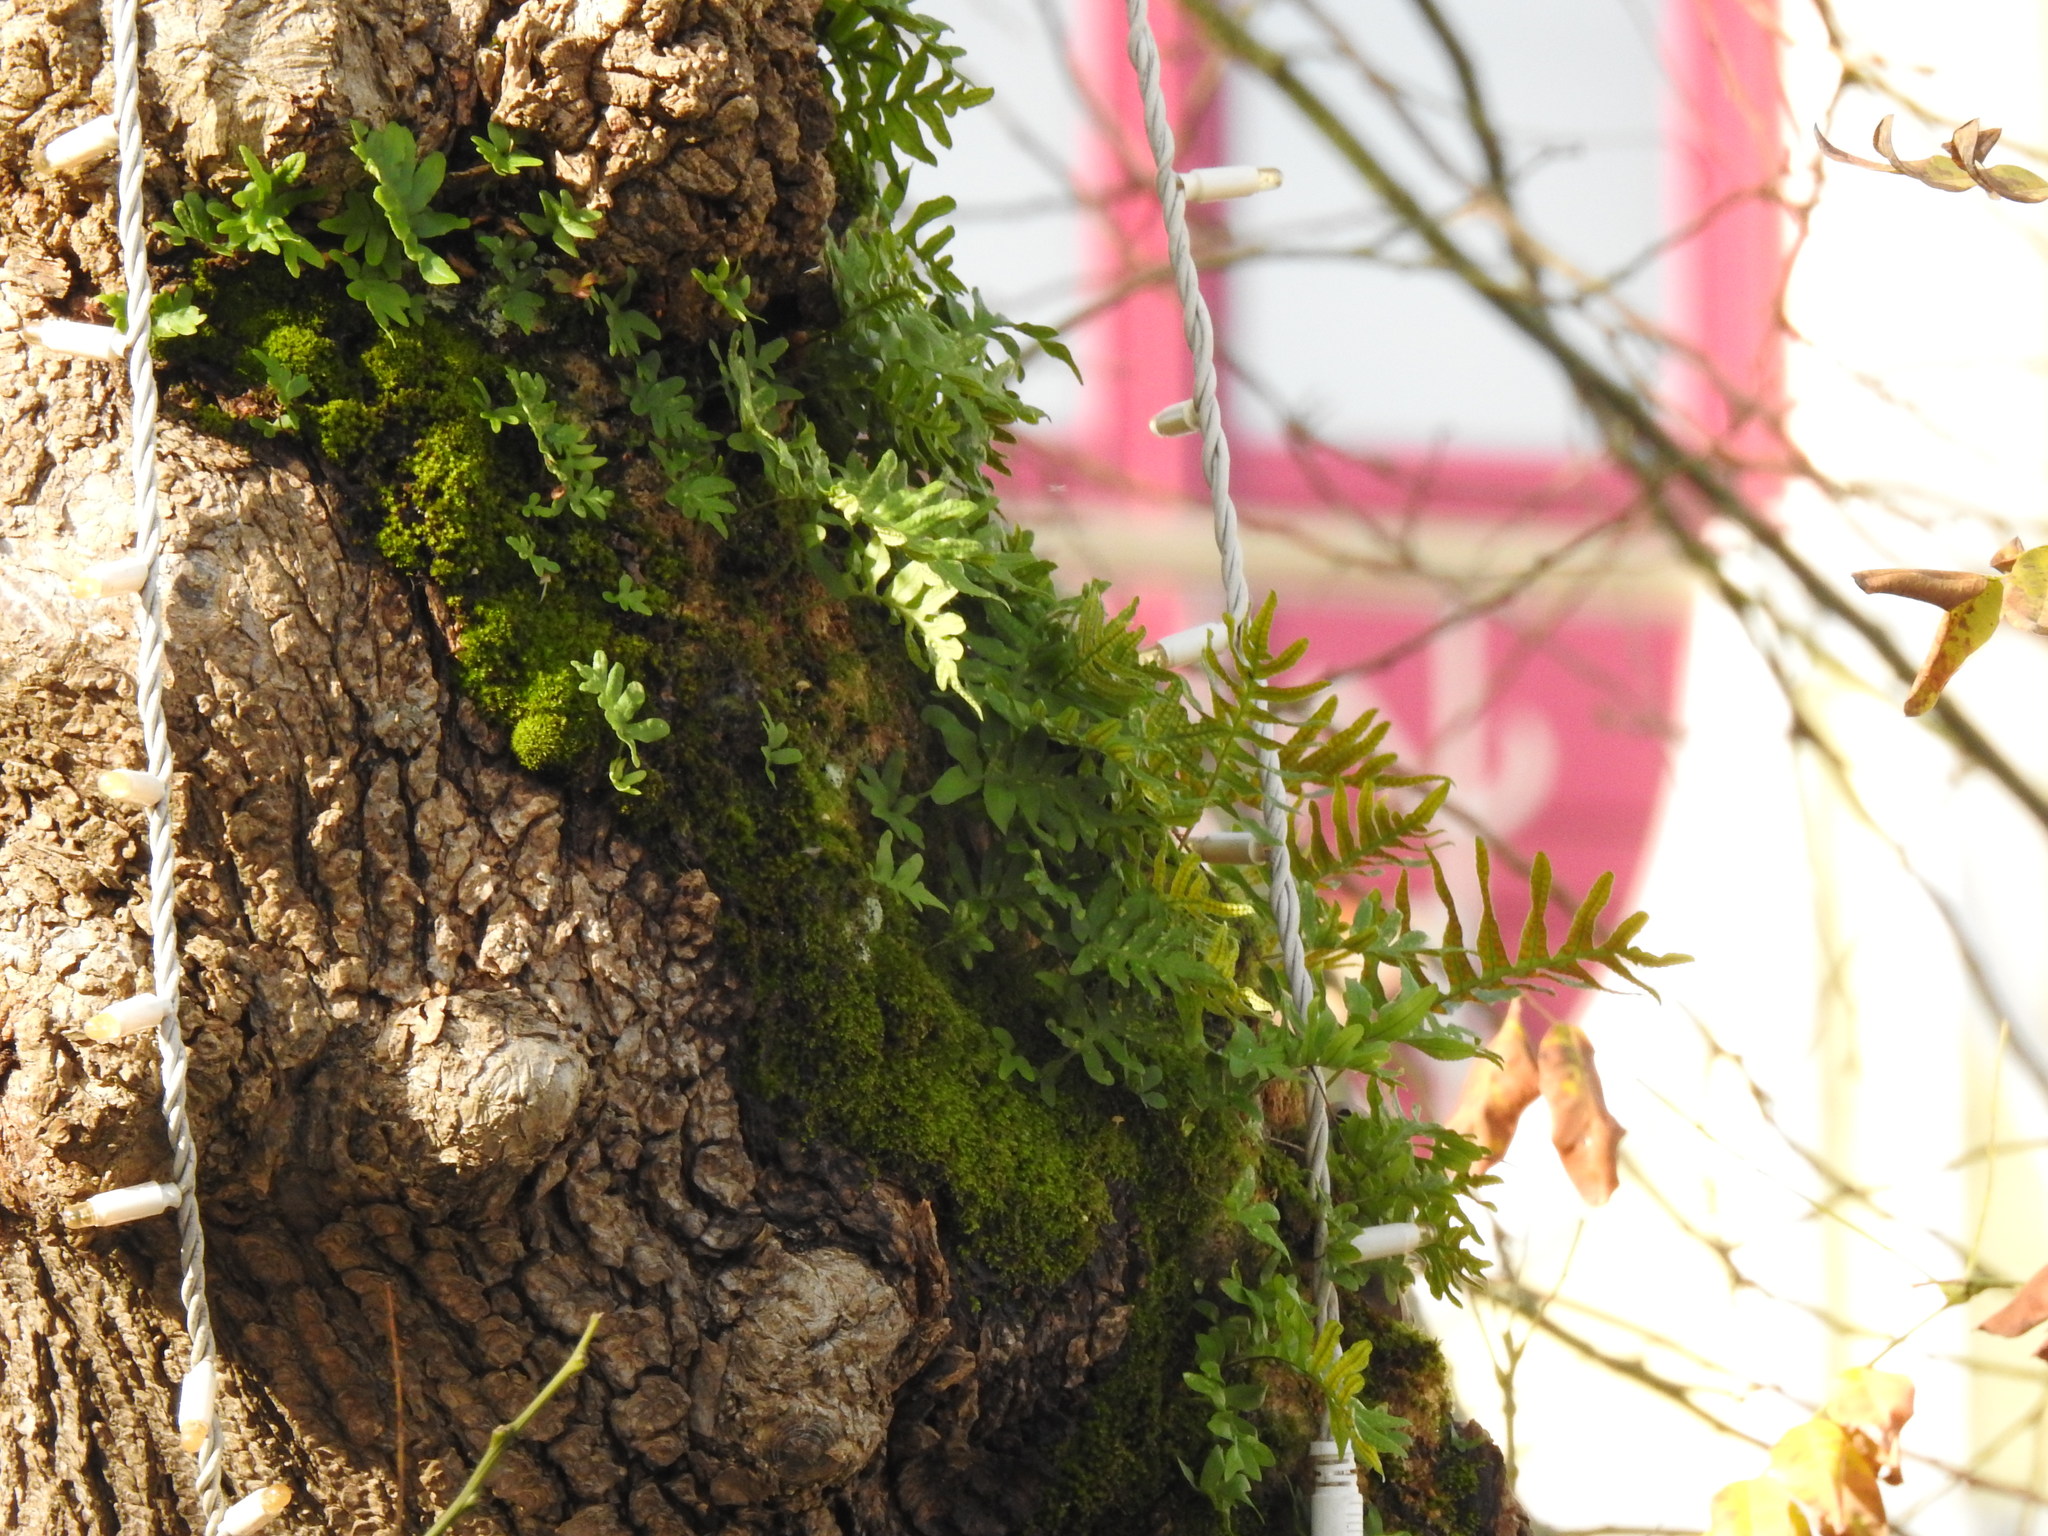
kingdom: Plantae
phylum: Tracheophyta
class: Polypodiopsida
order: Polypodiales
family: Polypodiaceae
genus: Polypodium
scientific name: Polypodium cambricum
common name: Southern polypody
